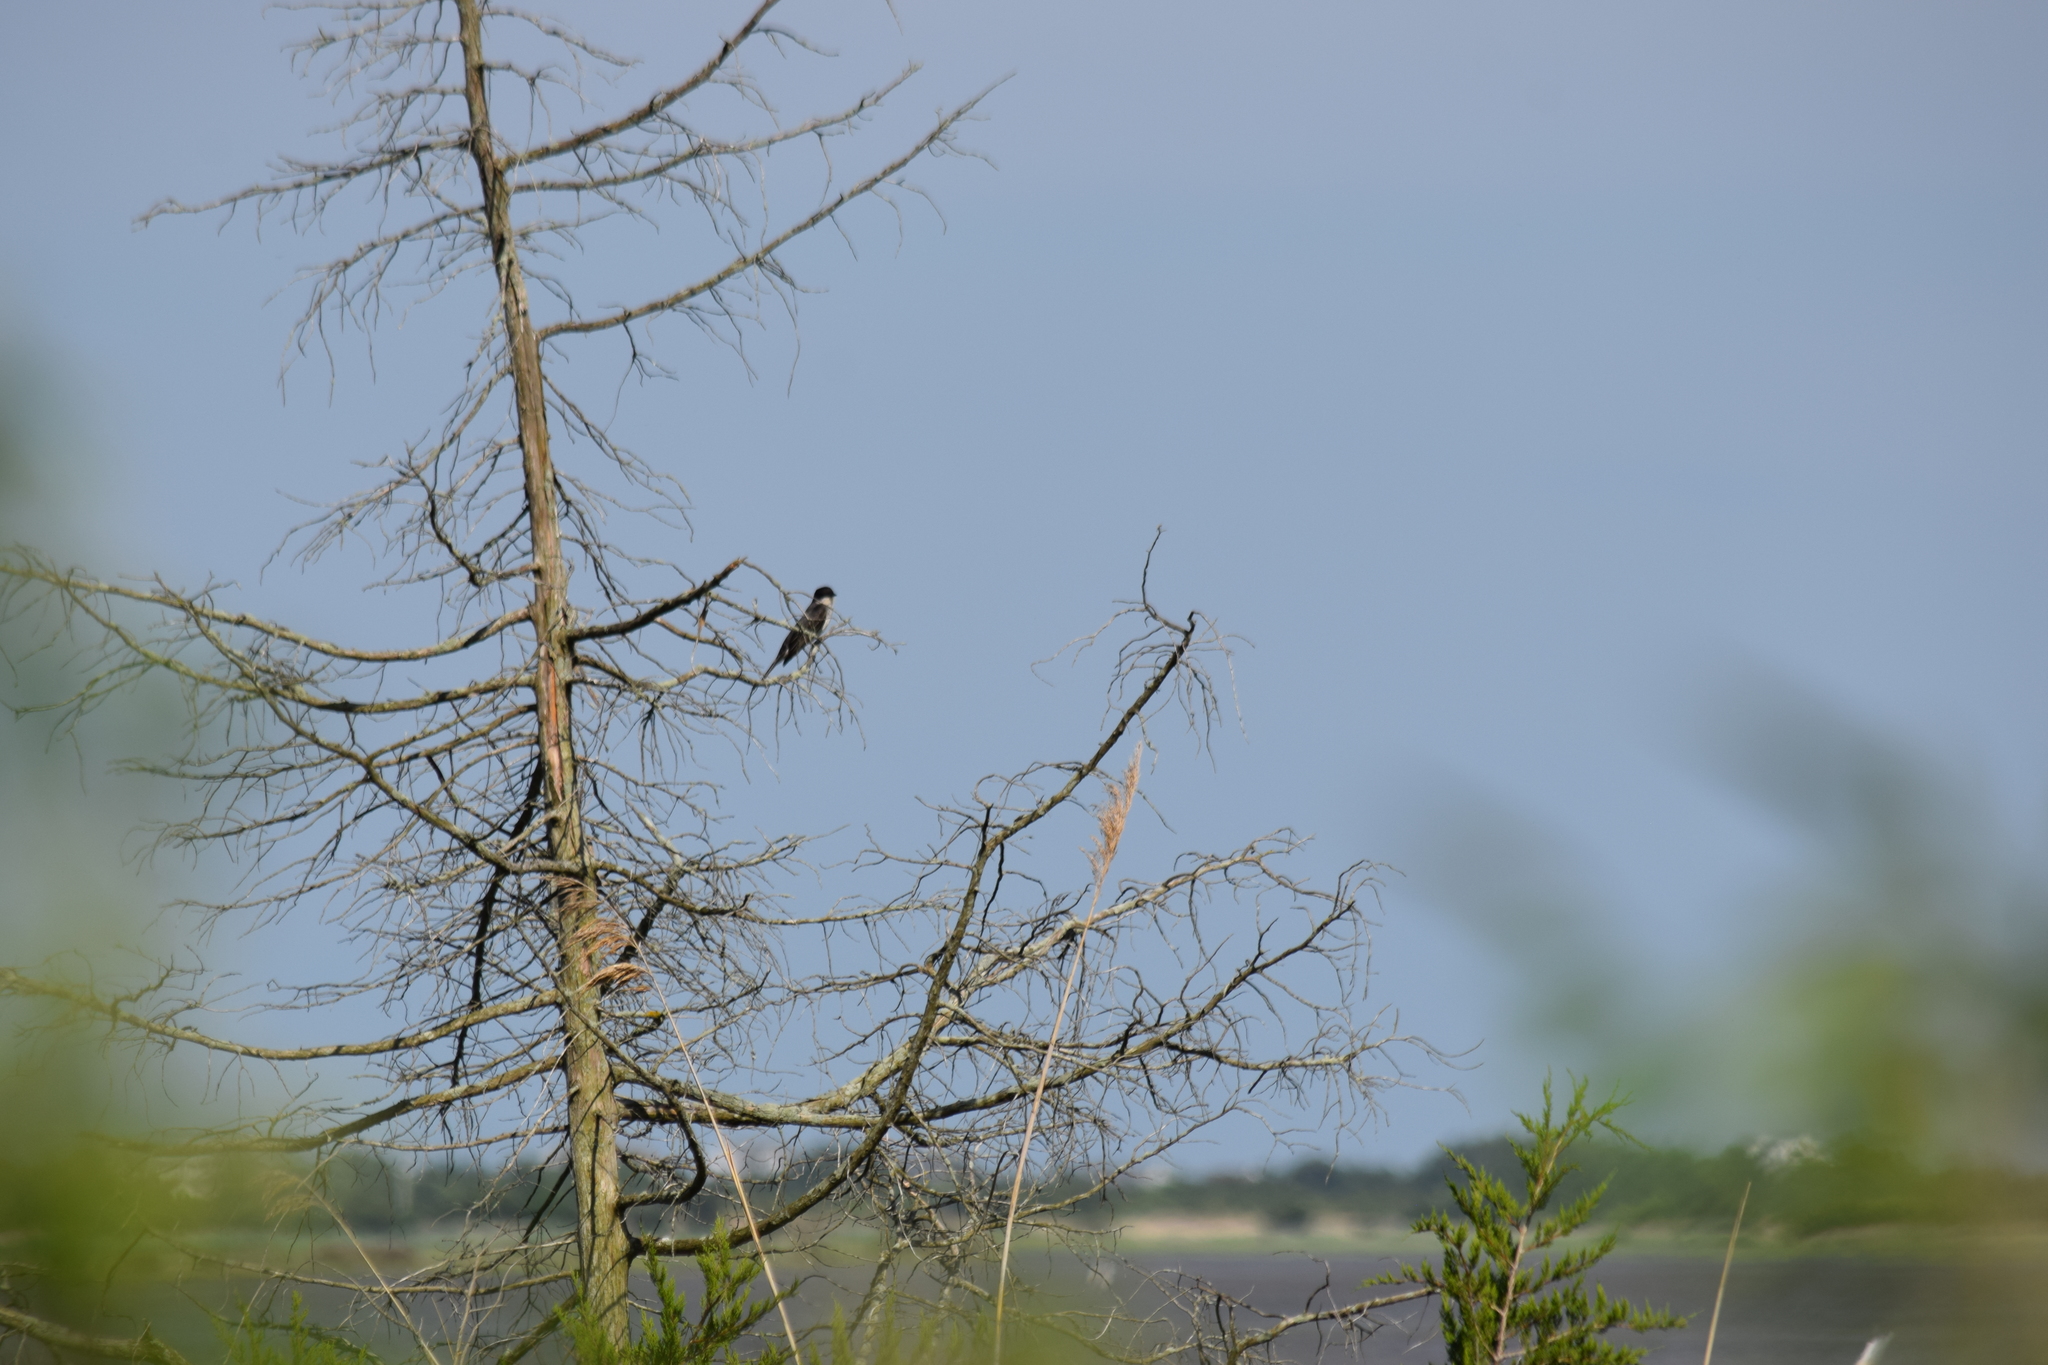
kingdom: Animalia
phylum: Chordata
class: Aves
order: Passeriformes
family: Tyrannidae
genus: Tyrannus
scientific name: Tyrannus tyrannus
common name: Eastern kingbird
